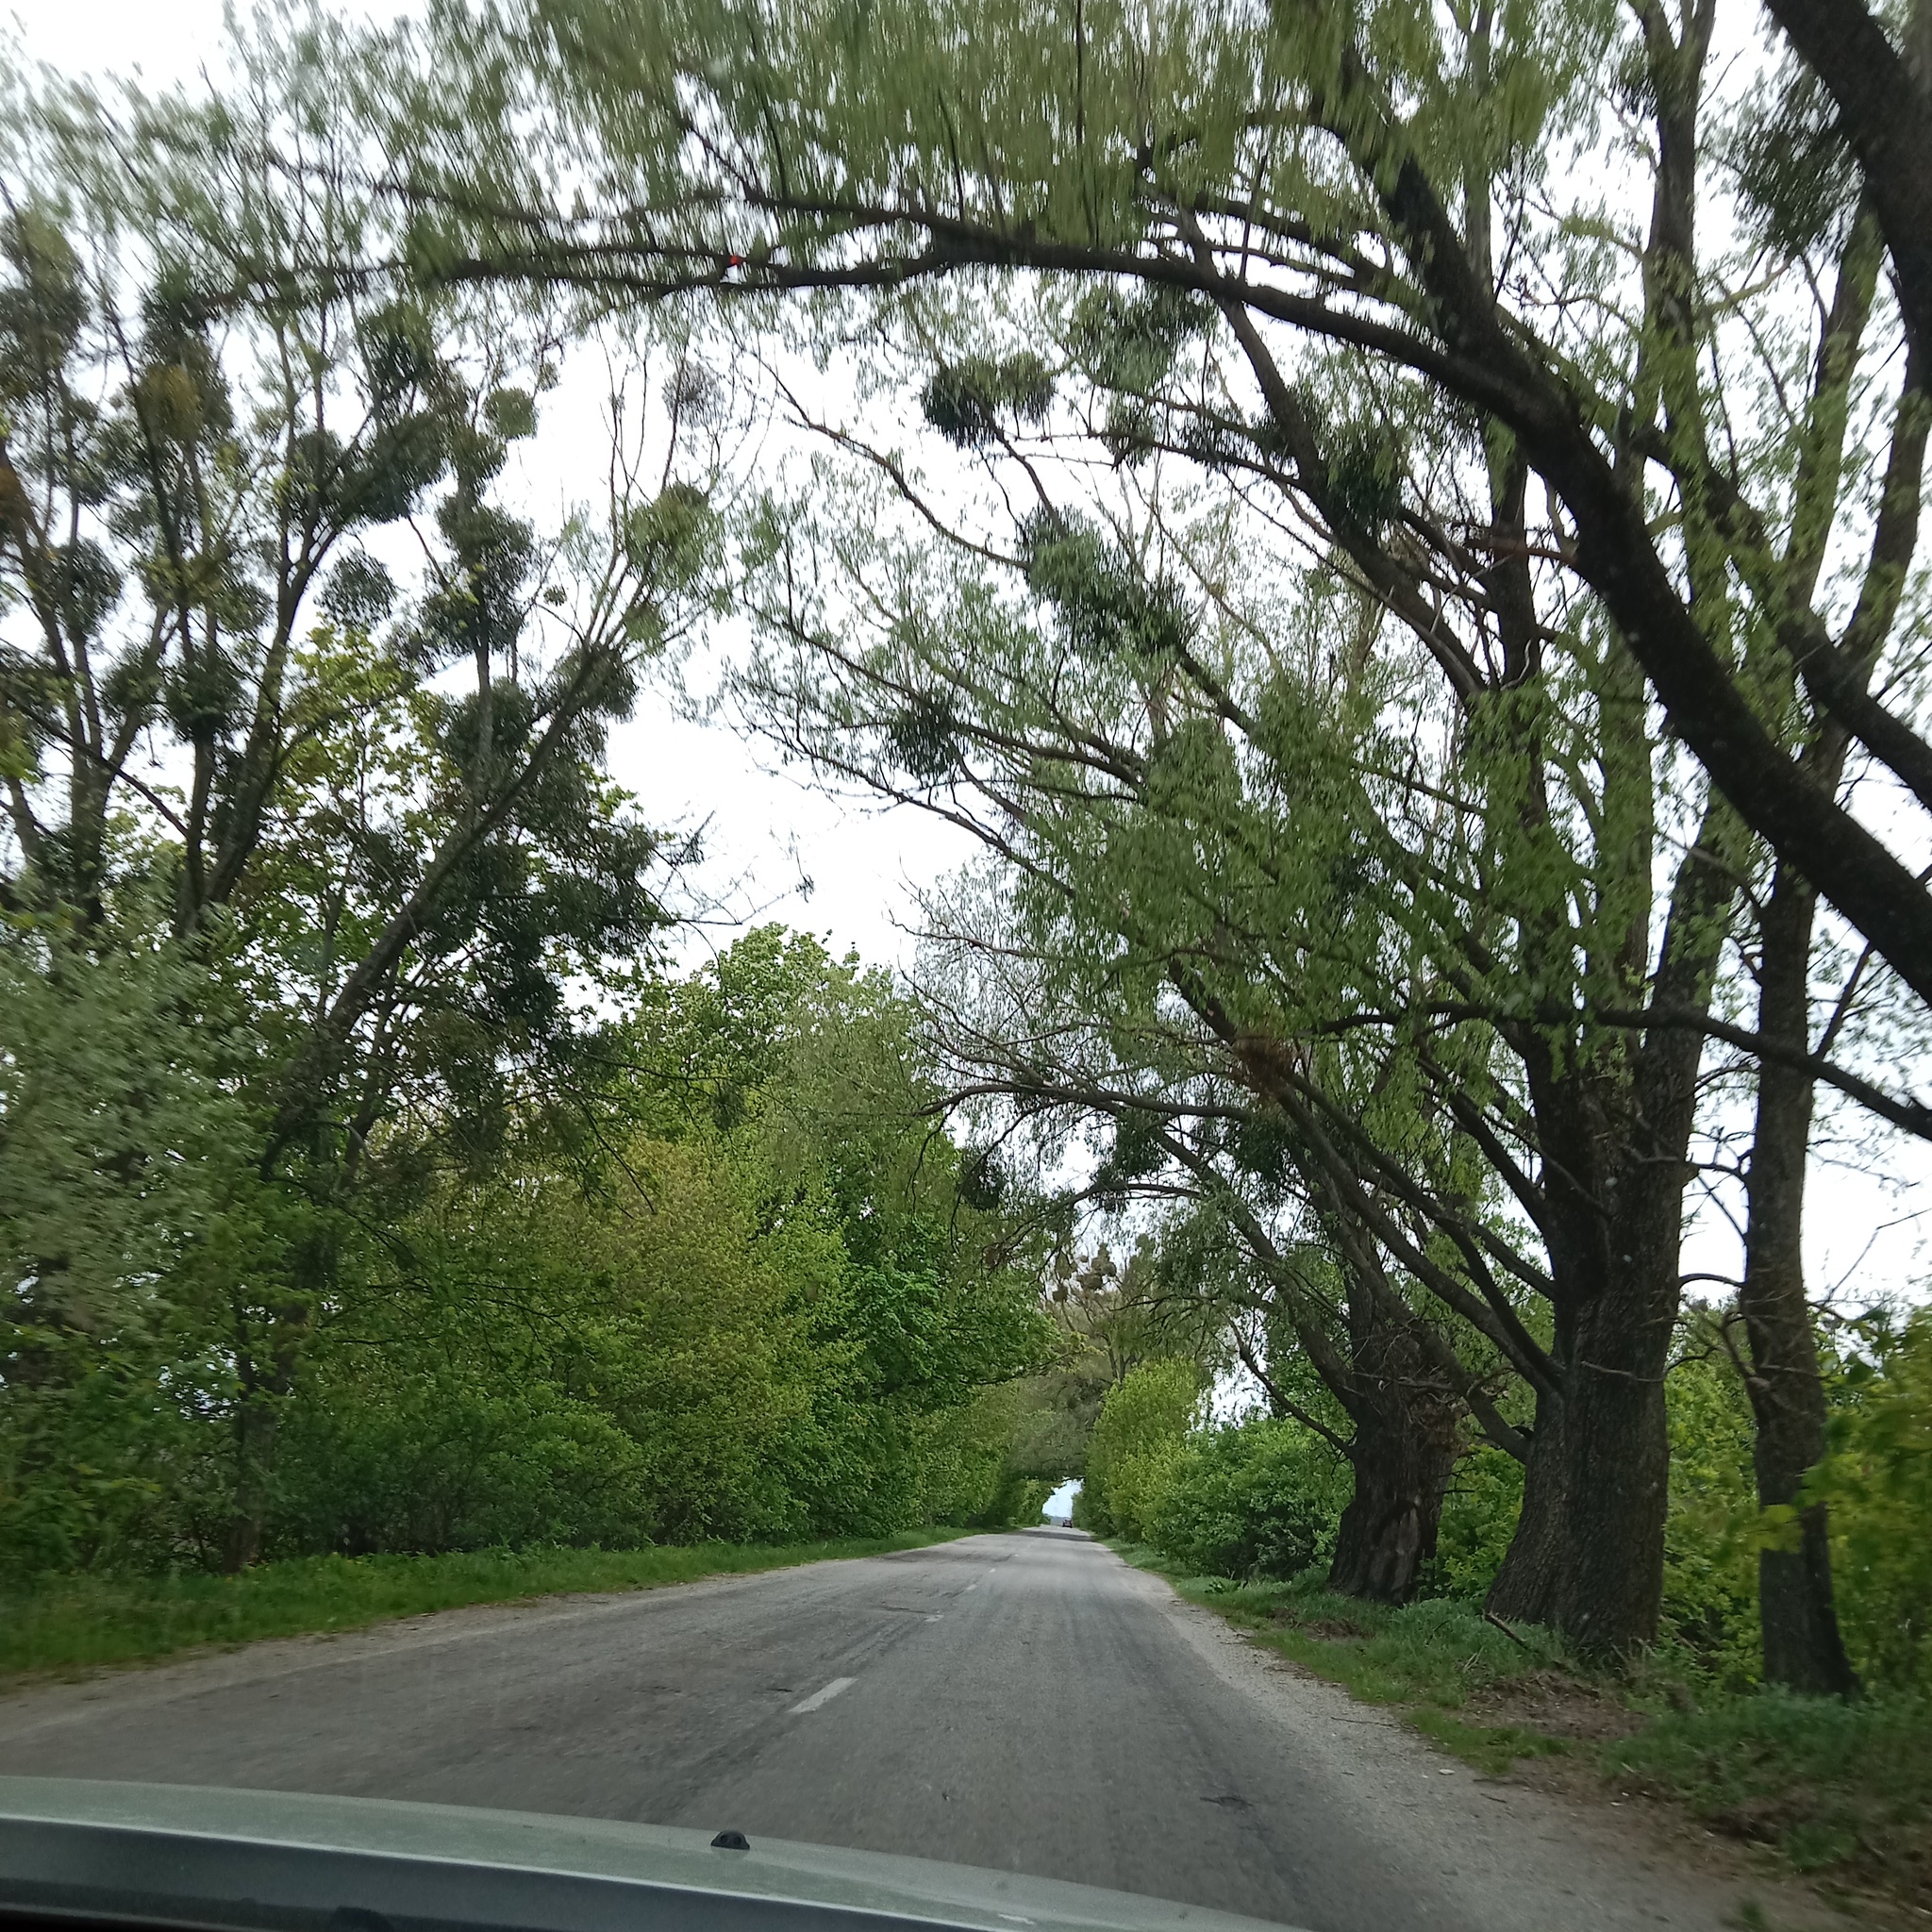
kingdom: Plantae
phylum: Tracheophyta
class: Magnoliopsida
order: Santalales
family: Viscaceae
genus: Viscum
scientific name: Viscum album
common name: Mistletoe
